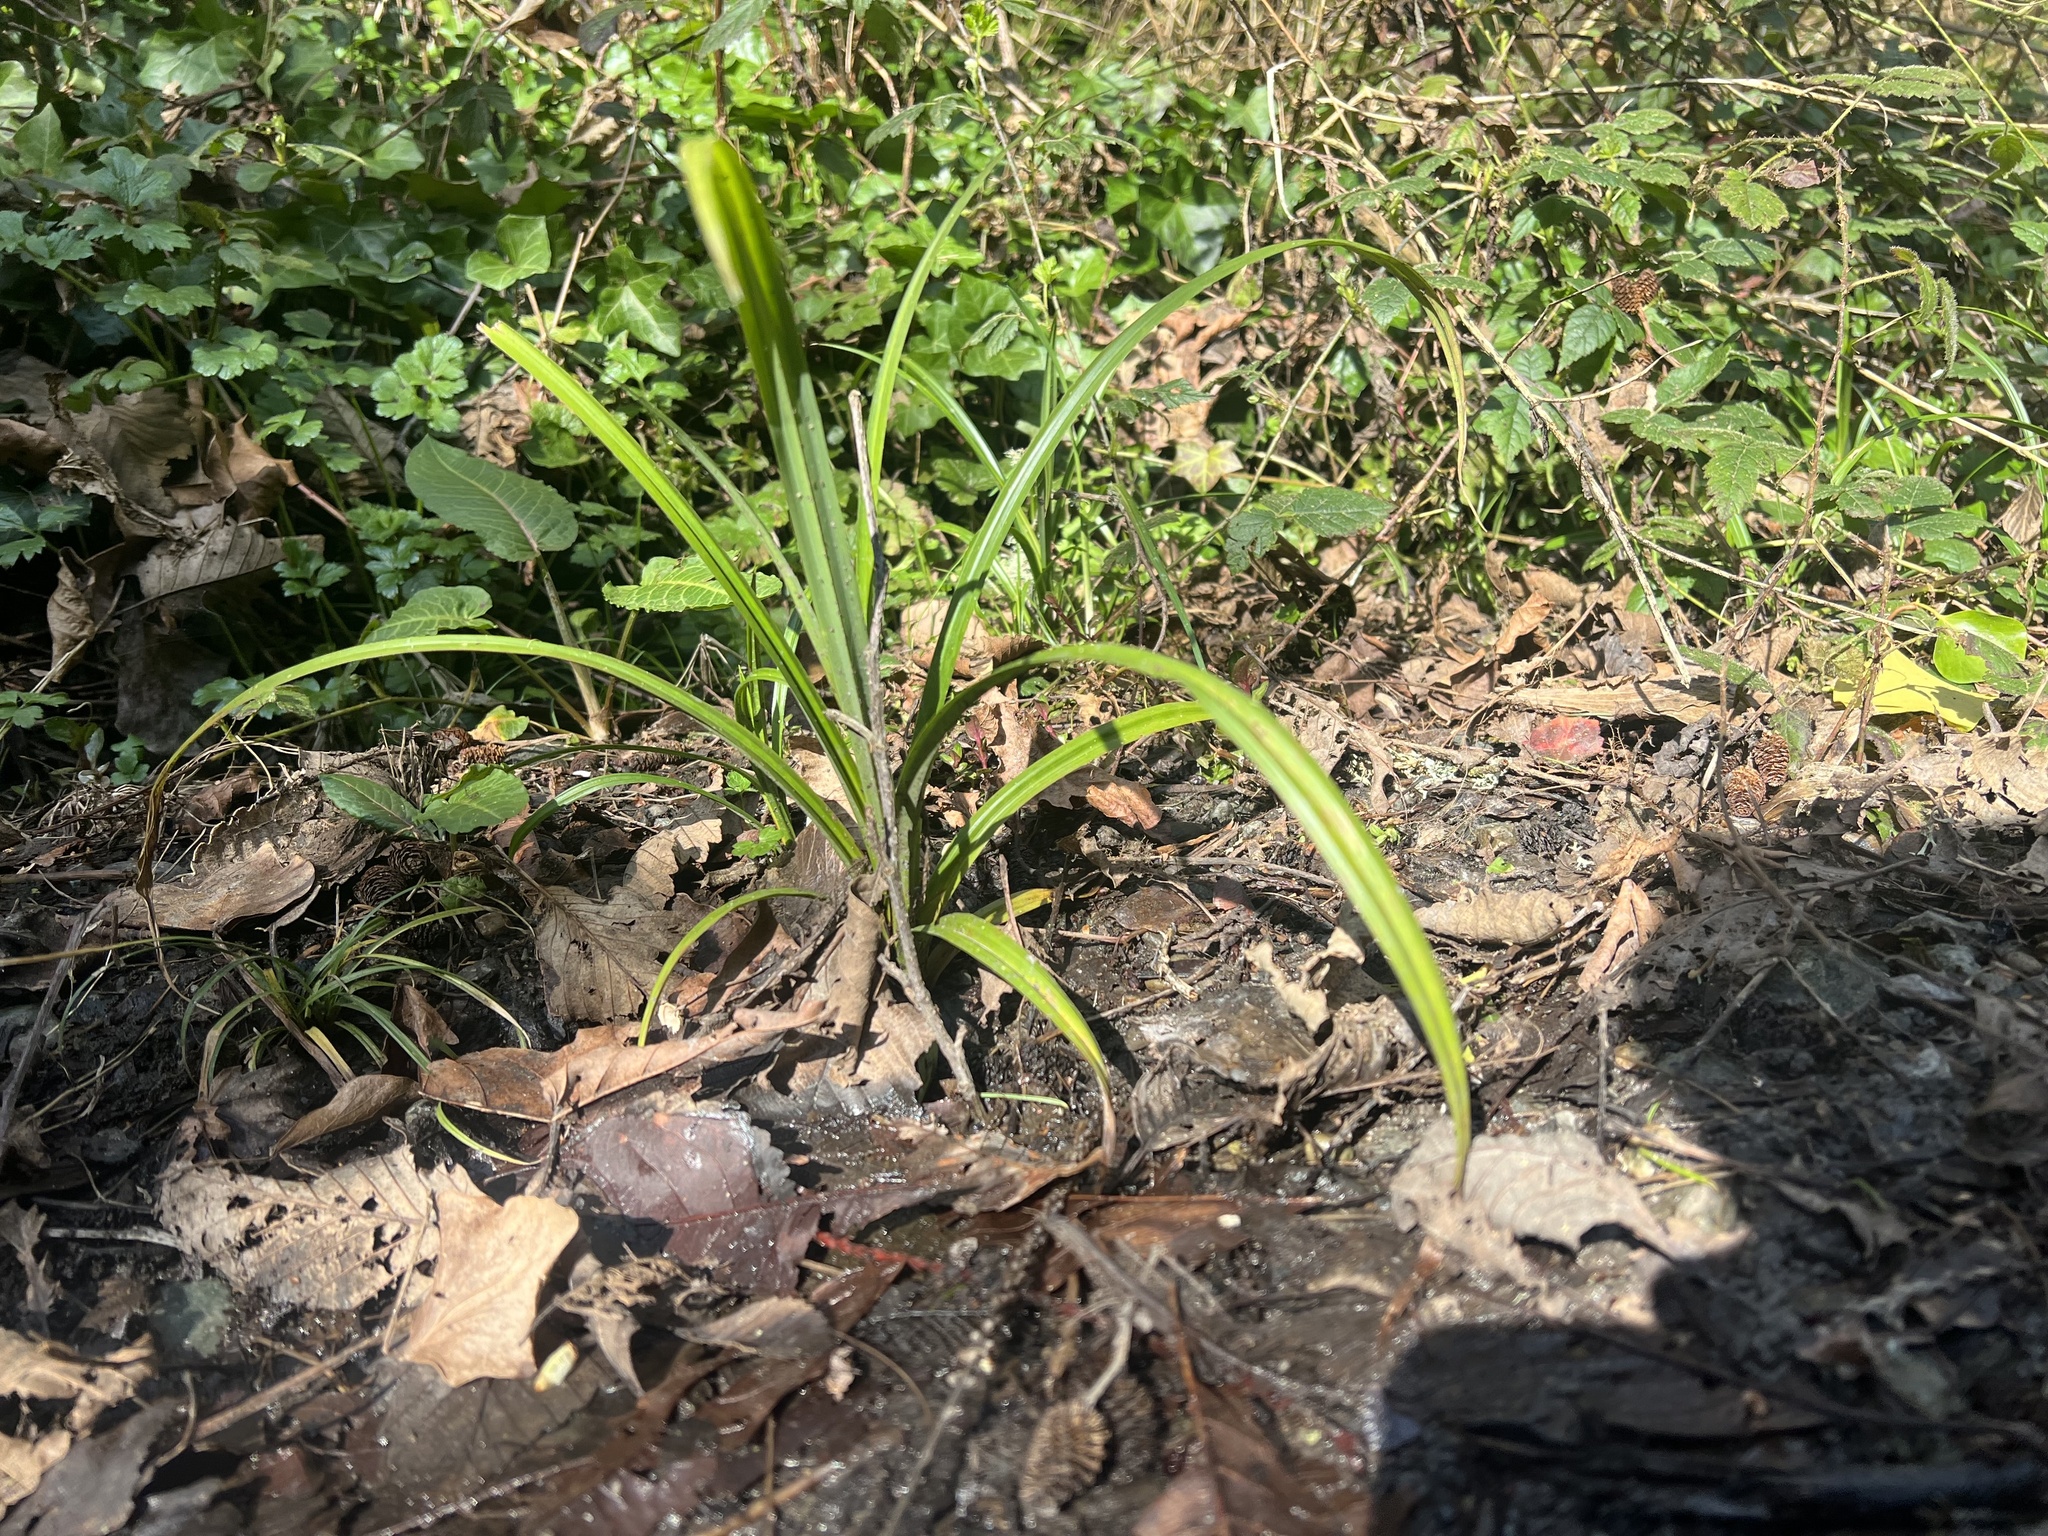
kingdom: Plantae
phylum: Tracheophyta
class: Liliopsida
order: Poales
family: Cyperaceae
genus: Carex
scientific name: Carex pendula
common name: Pendulous sedge
